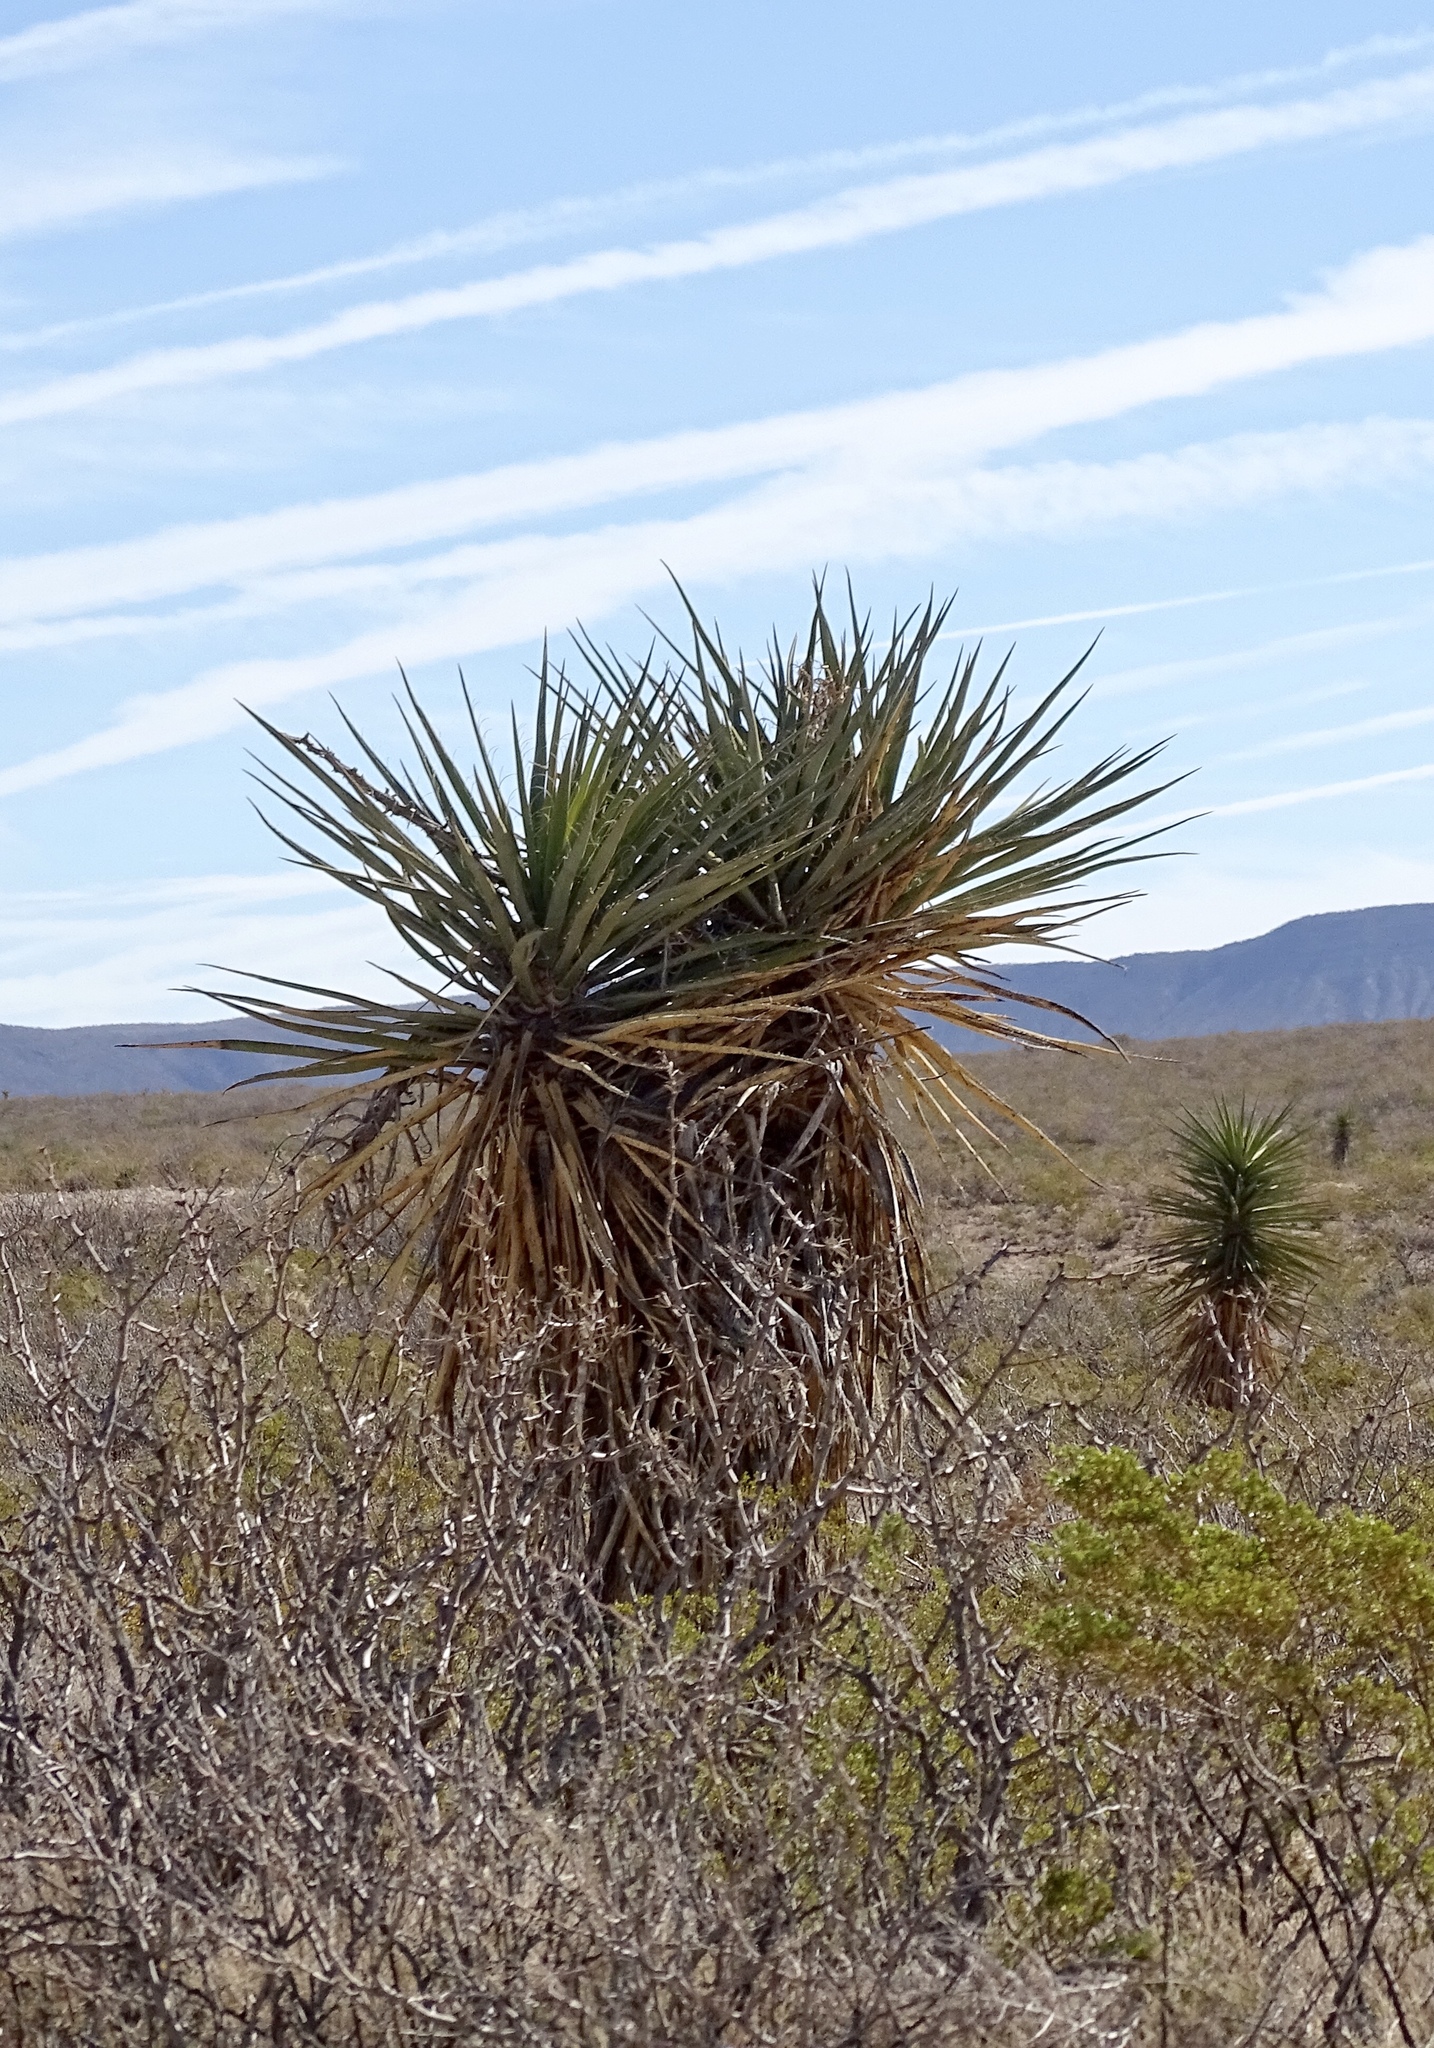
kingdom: Plantae
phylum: Tracheophyta
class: Liliopsida
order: Asparagales
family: Asparagaceae
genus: Yucca
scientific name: Yucca treculiana
